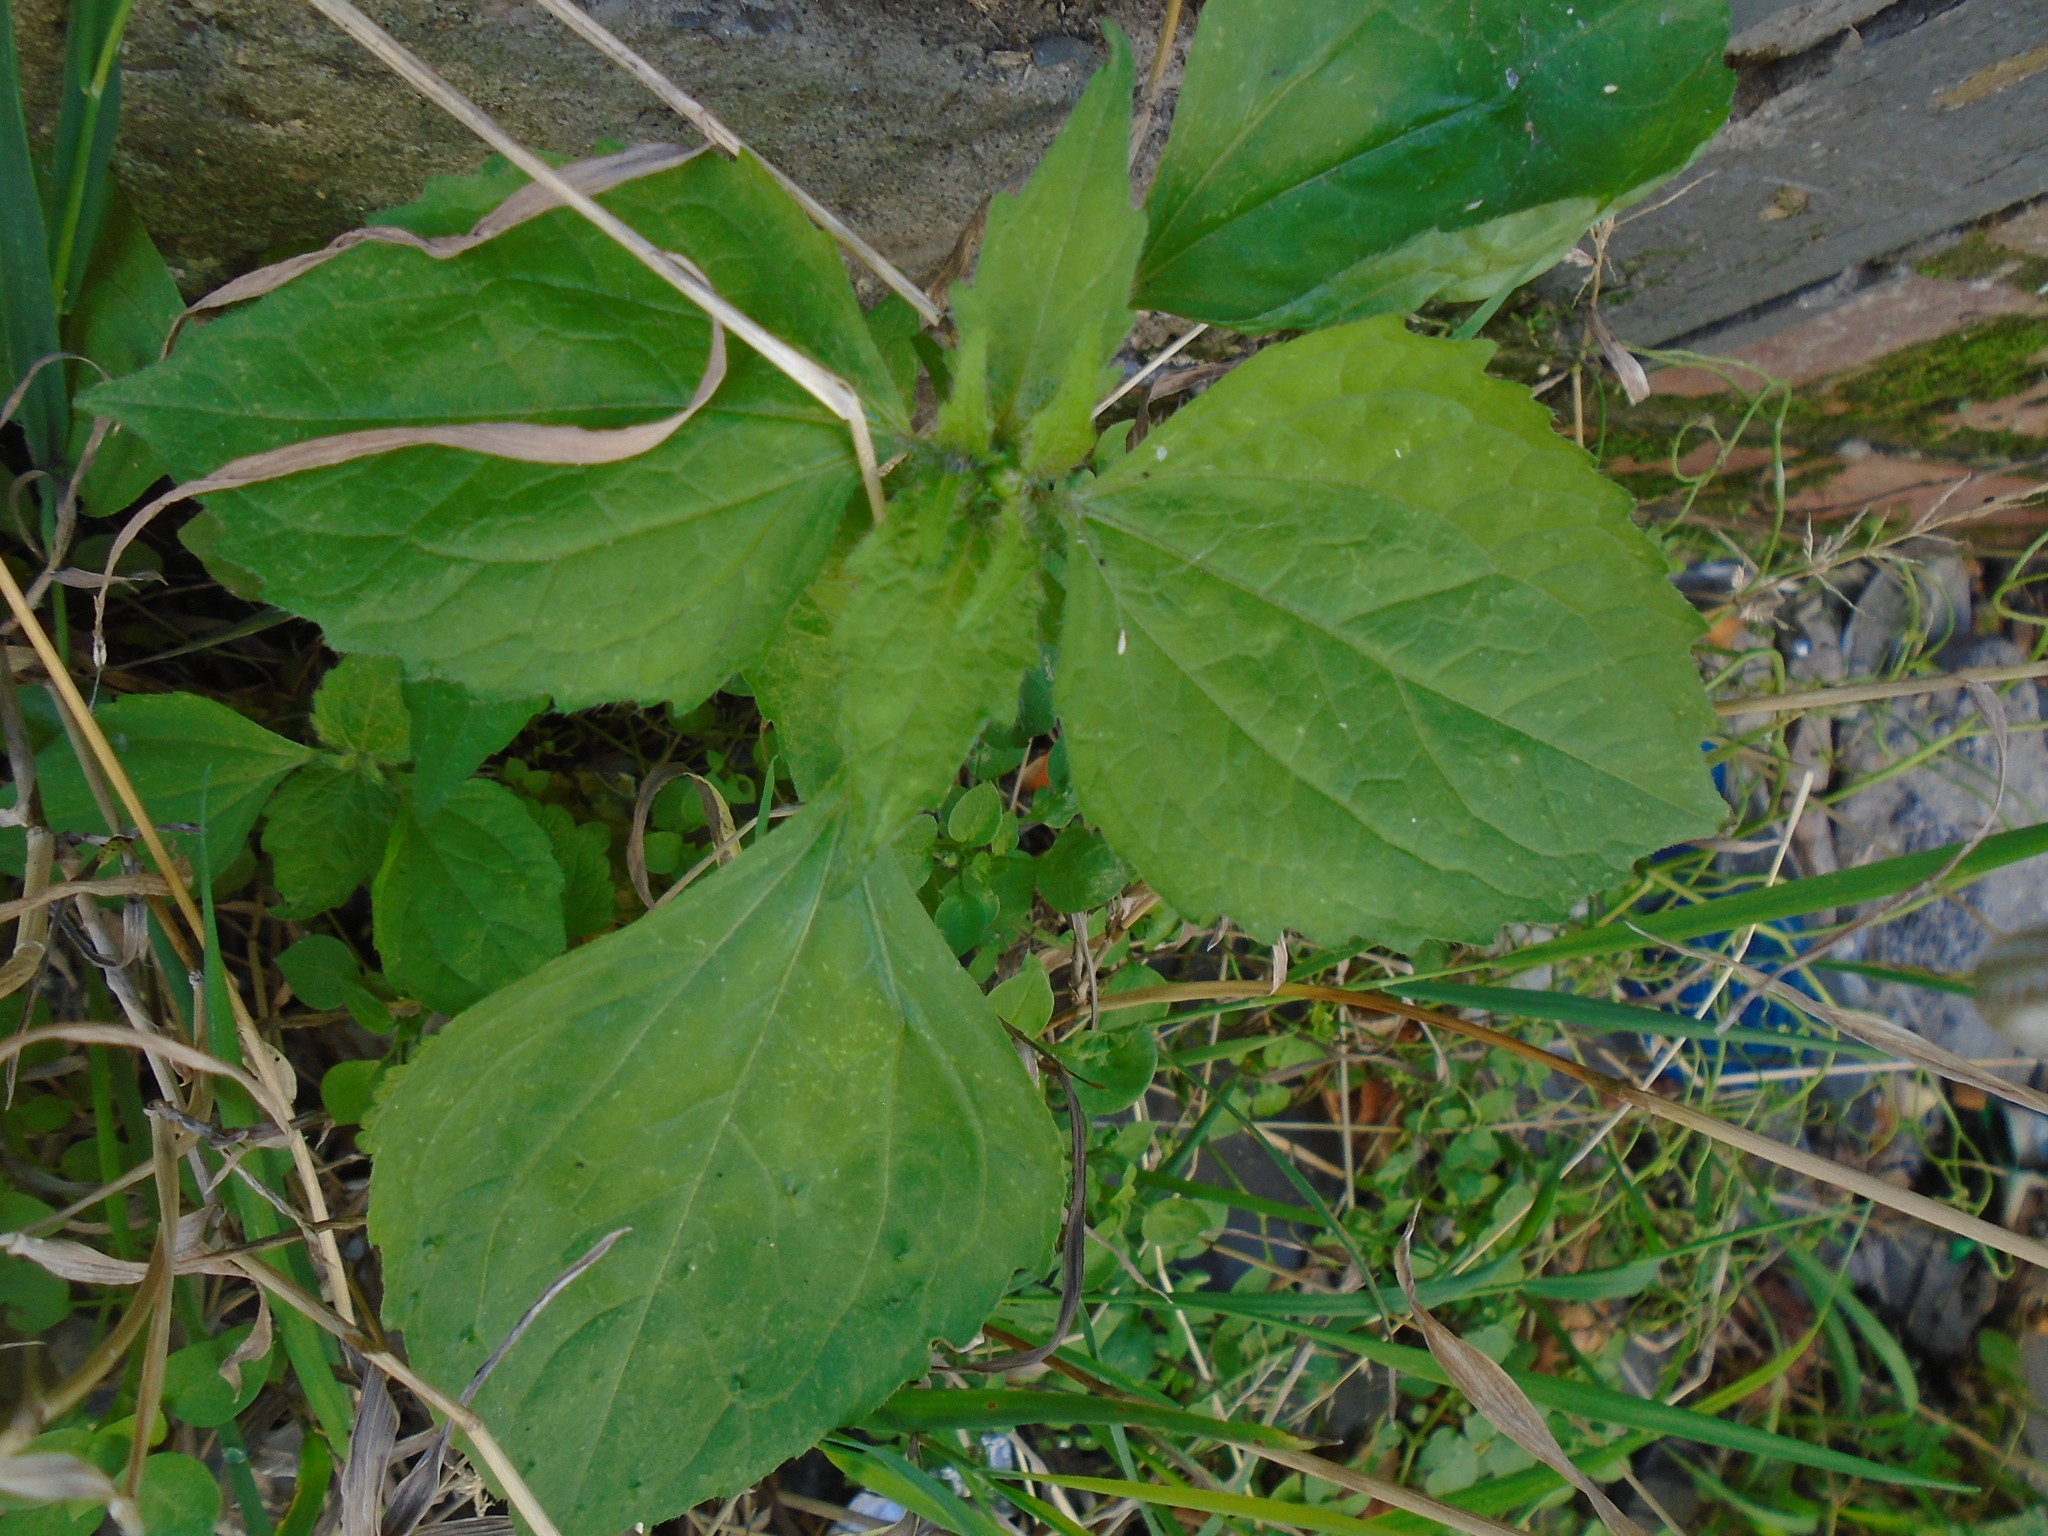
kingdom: Plantae
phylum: Tracheophyta
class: Magnoliopsida
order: Asterales
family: Asteraceae
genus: Galinsoga
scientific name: Galinsoga quadriradiata
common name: Shaggy soldier
